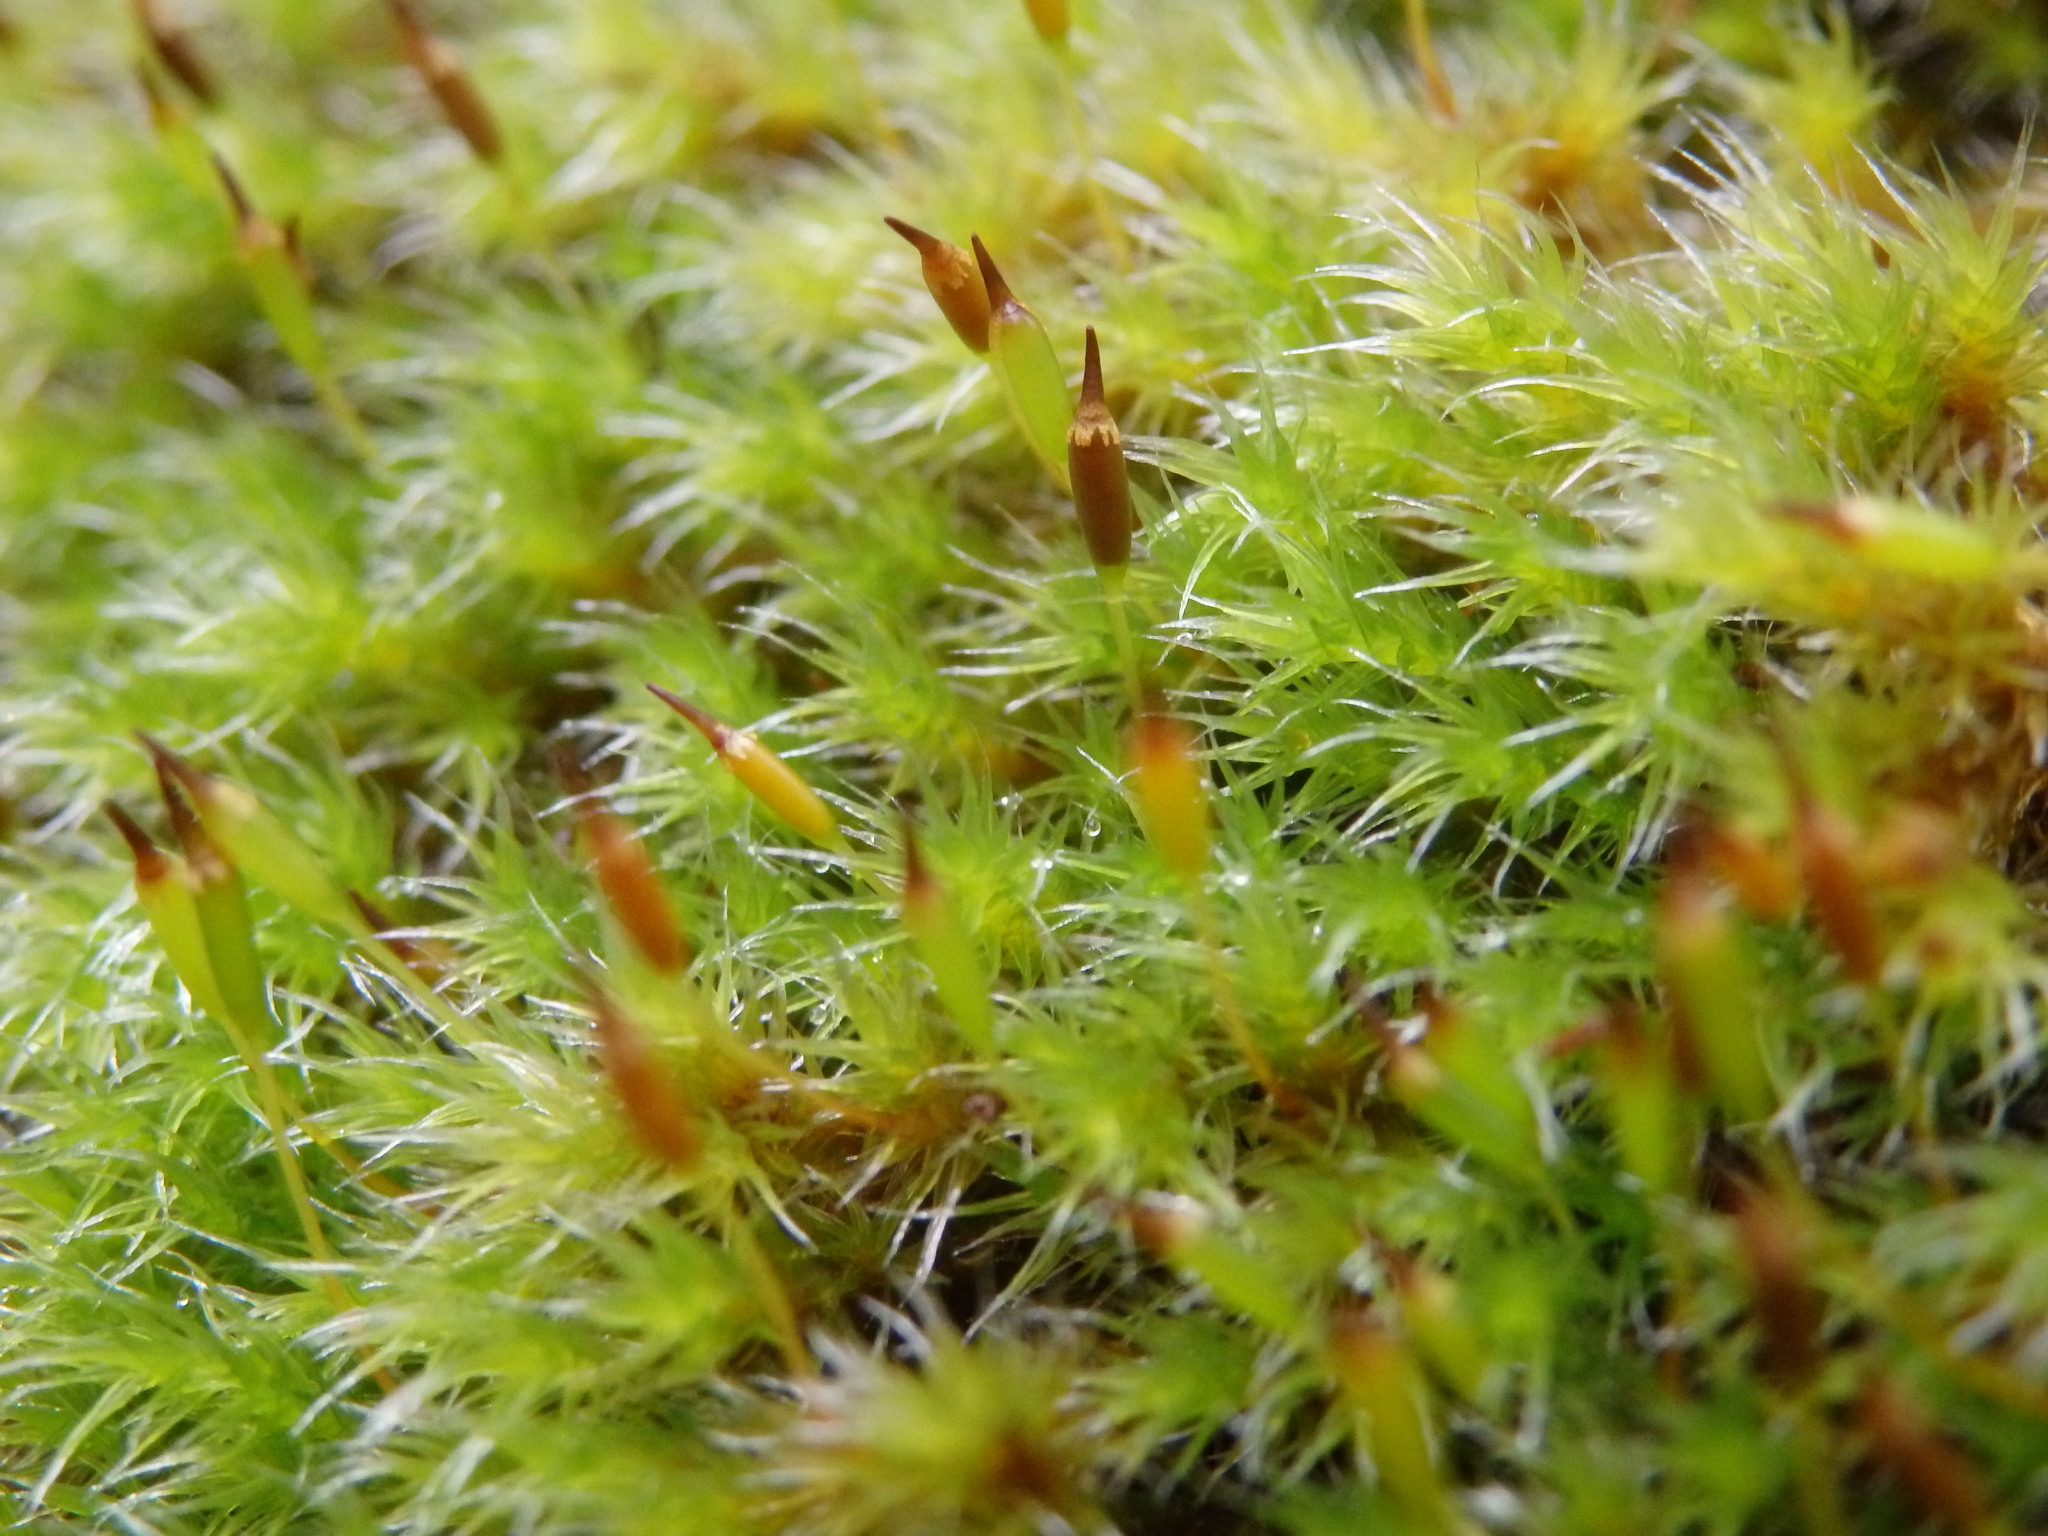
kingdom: Plantae
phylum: Bryophyta
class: Bryopsida
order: Grimmiales
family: Grimmiaceae
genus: Bucklandiella
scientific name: Bucklandiella heterosticha
